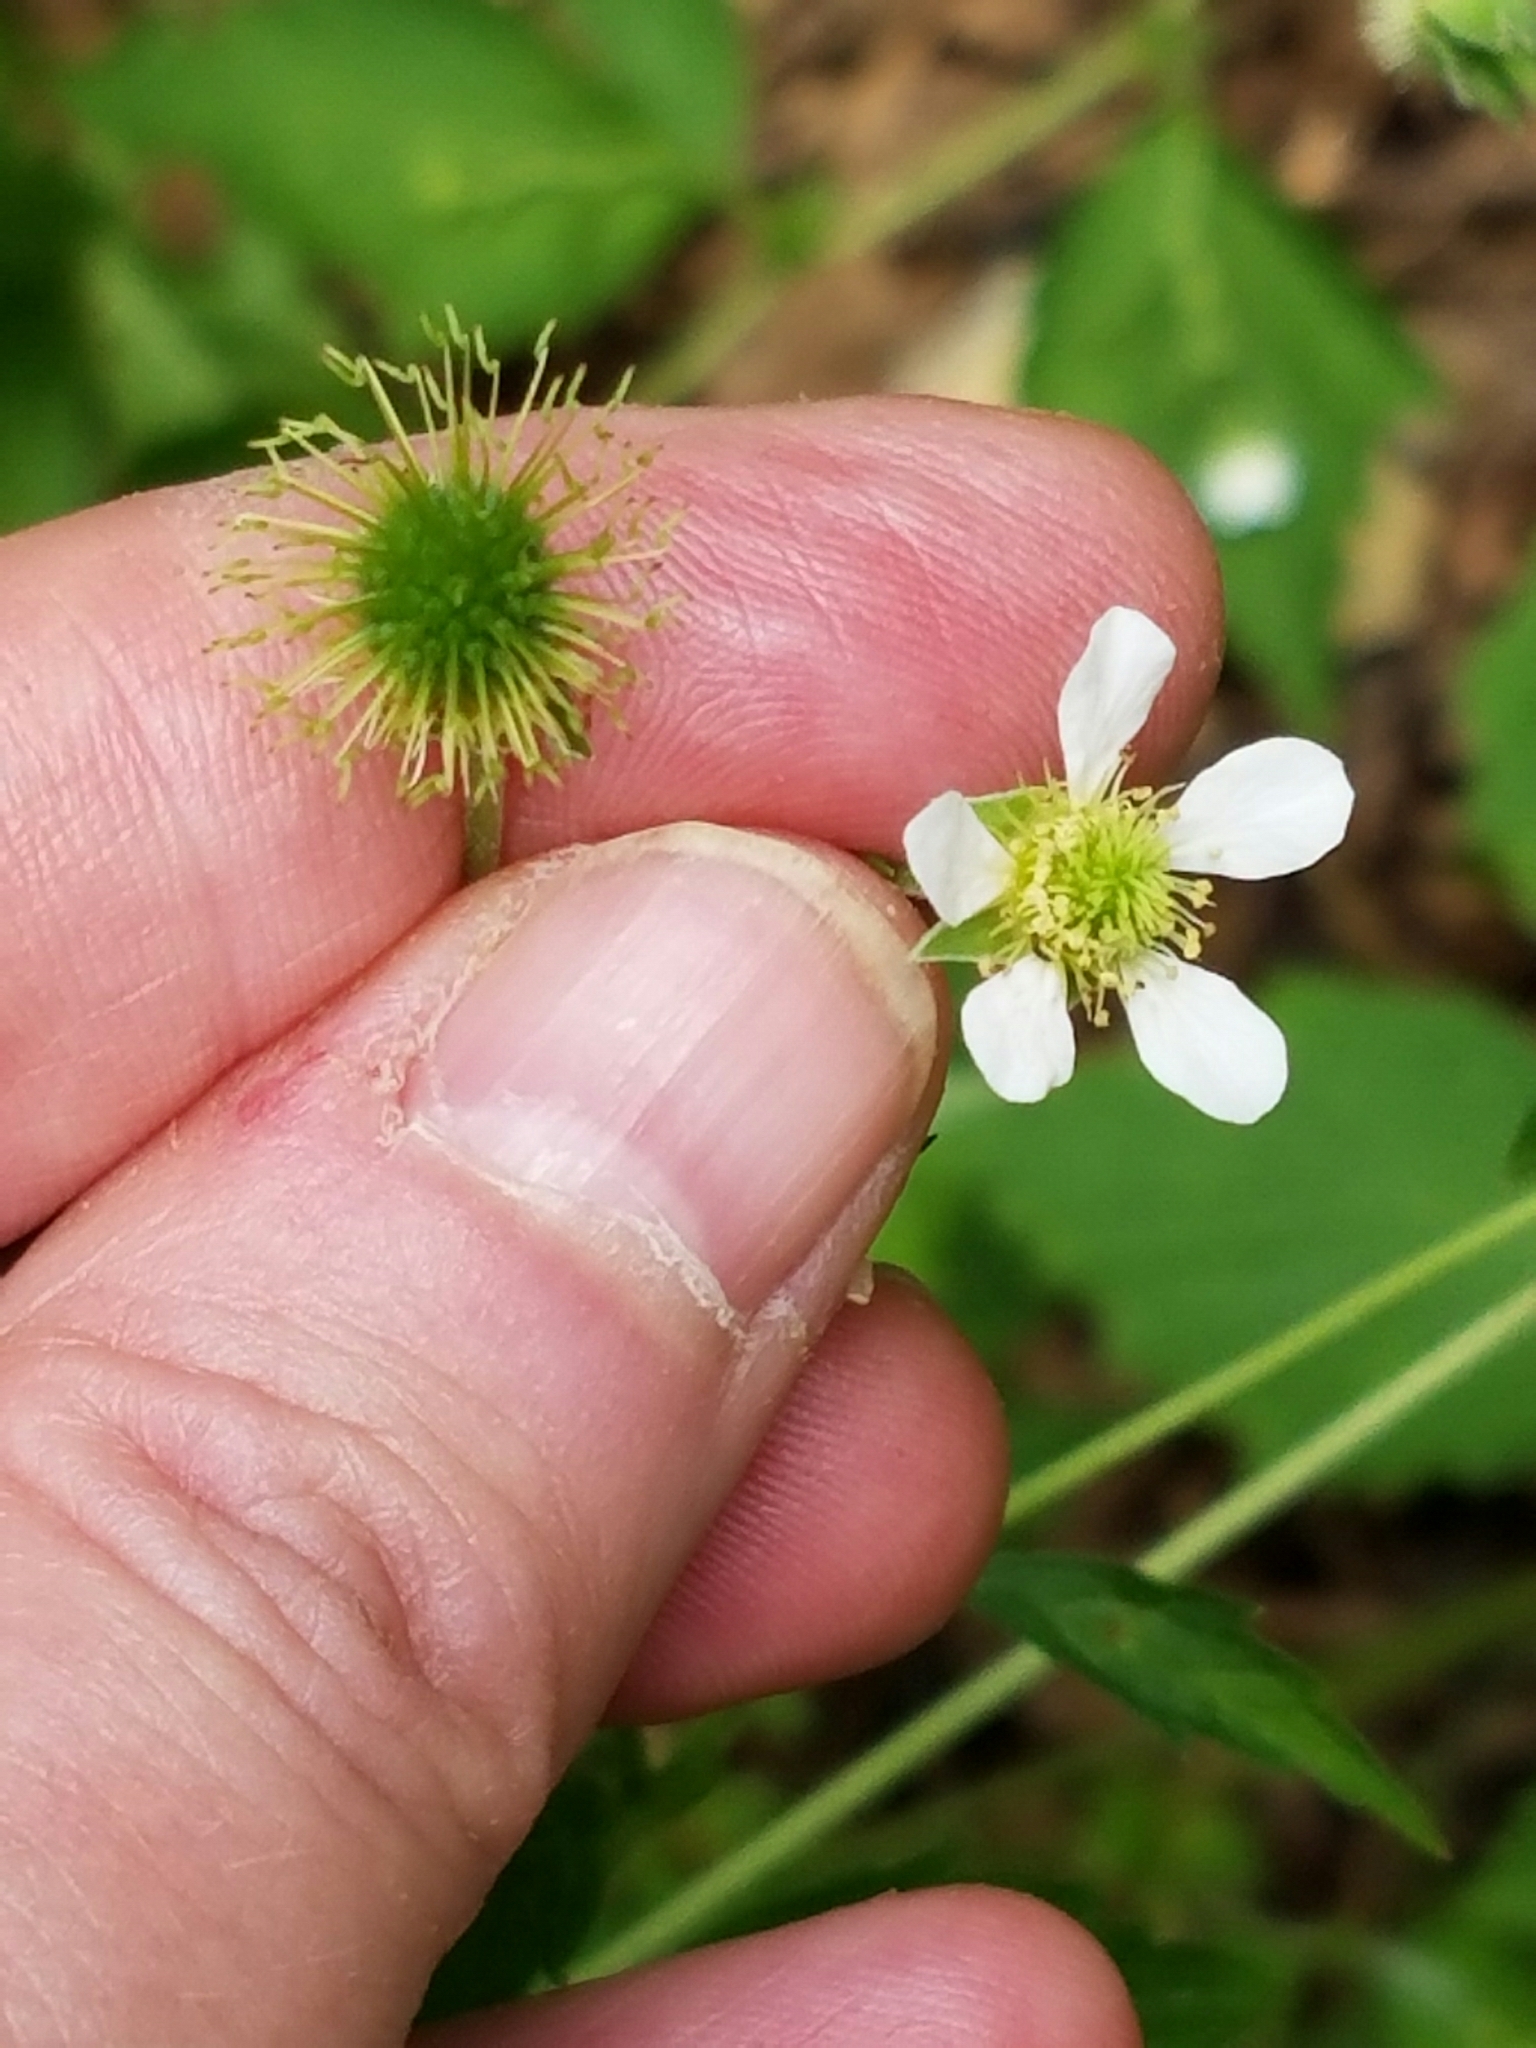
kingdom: Plantae
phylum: Tracheophyta
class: Magnoliopsida
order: Rosales
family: Rosaceae
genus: Geum
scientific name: Geum canadense
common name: White avens
